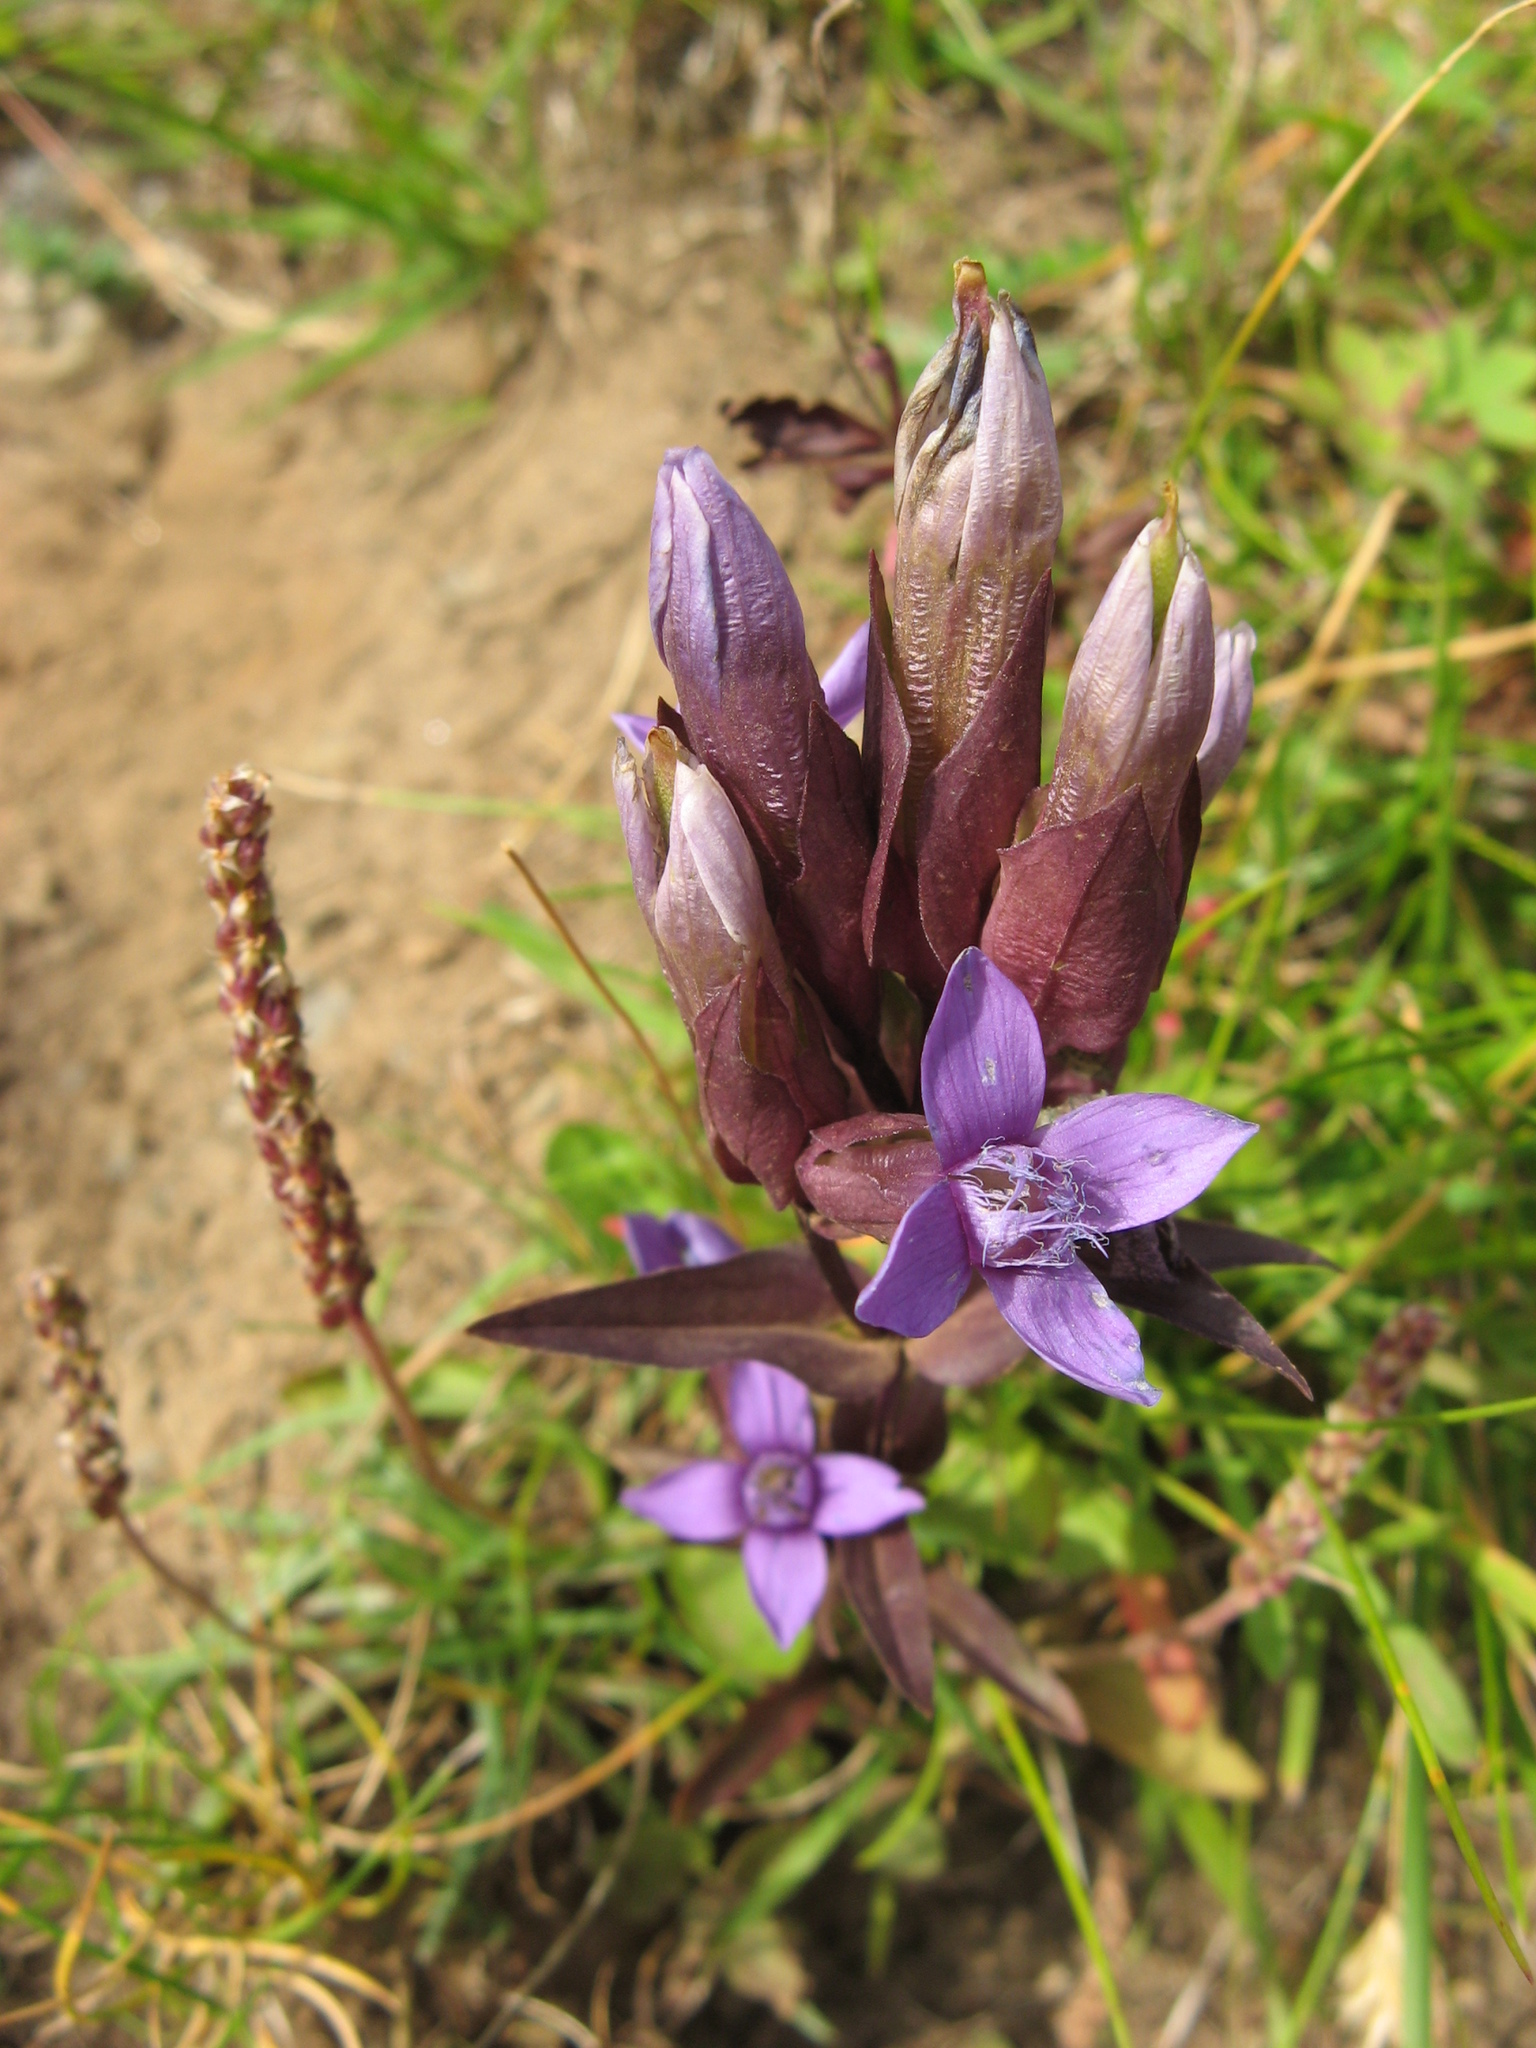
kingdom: Plantae
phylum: Tracheophyta
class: Magnoliopsida
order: Gentianales
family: Gentianaceae
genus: Gentianella
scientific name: Gentianella campestris
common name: Field gentian
